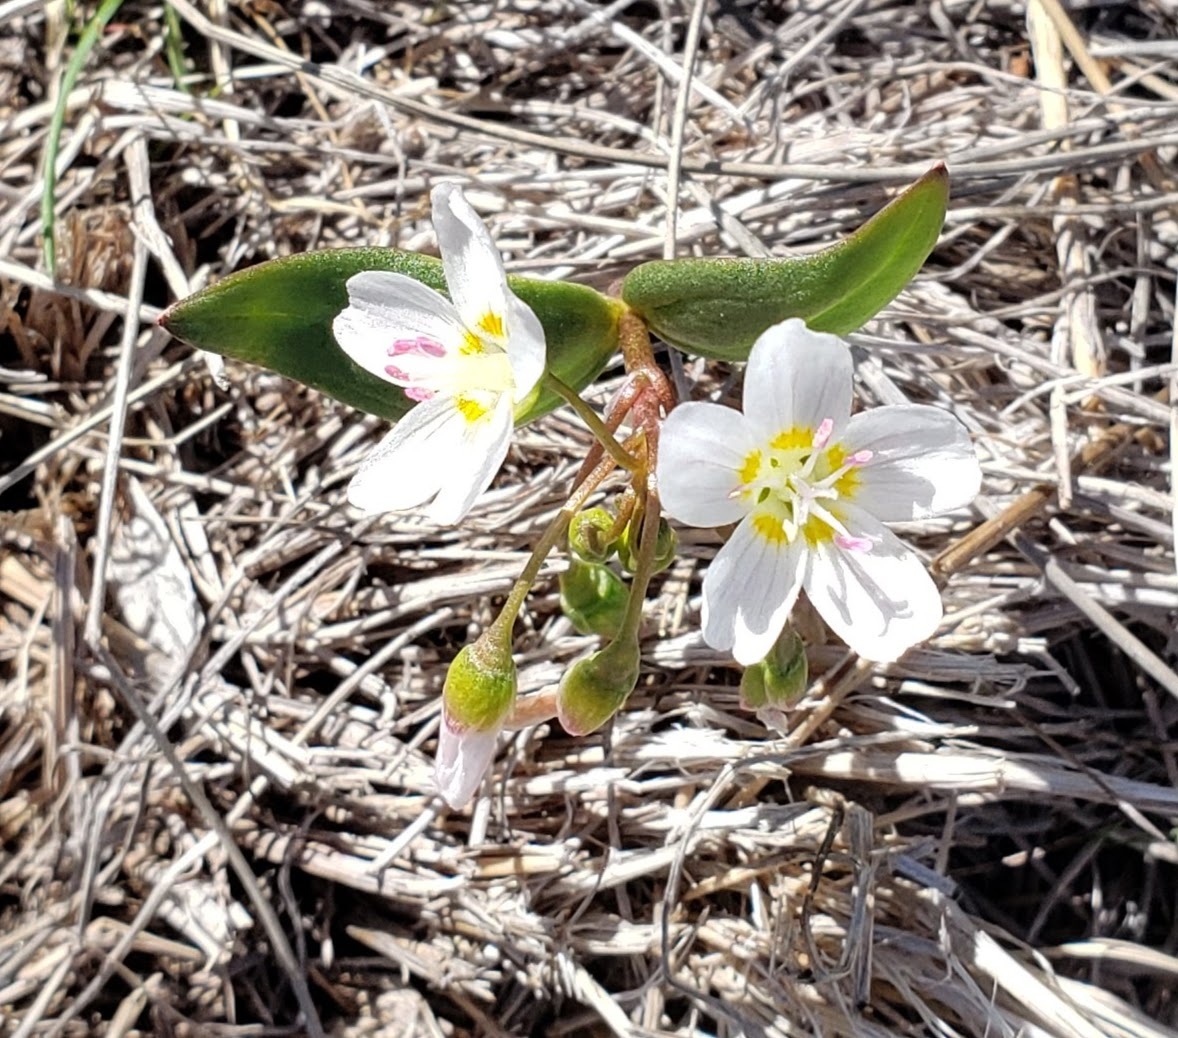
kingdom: Plantae
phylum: Tracheophyta
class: Magnoliopsida
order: Caryophyllales
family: Montiaceae
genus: Claytonia
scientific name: Claytonia lanceolata
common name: Western spring-beauty
